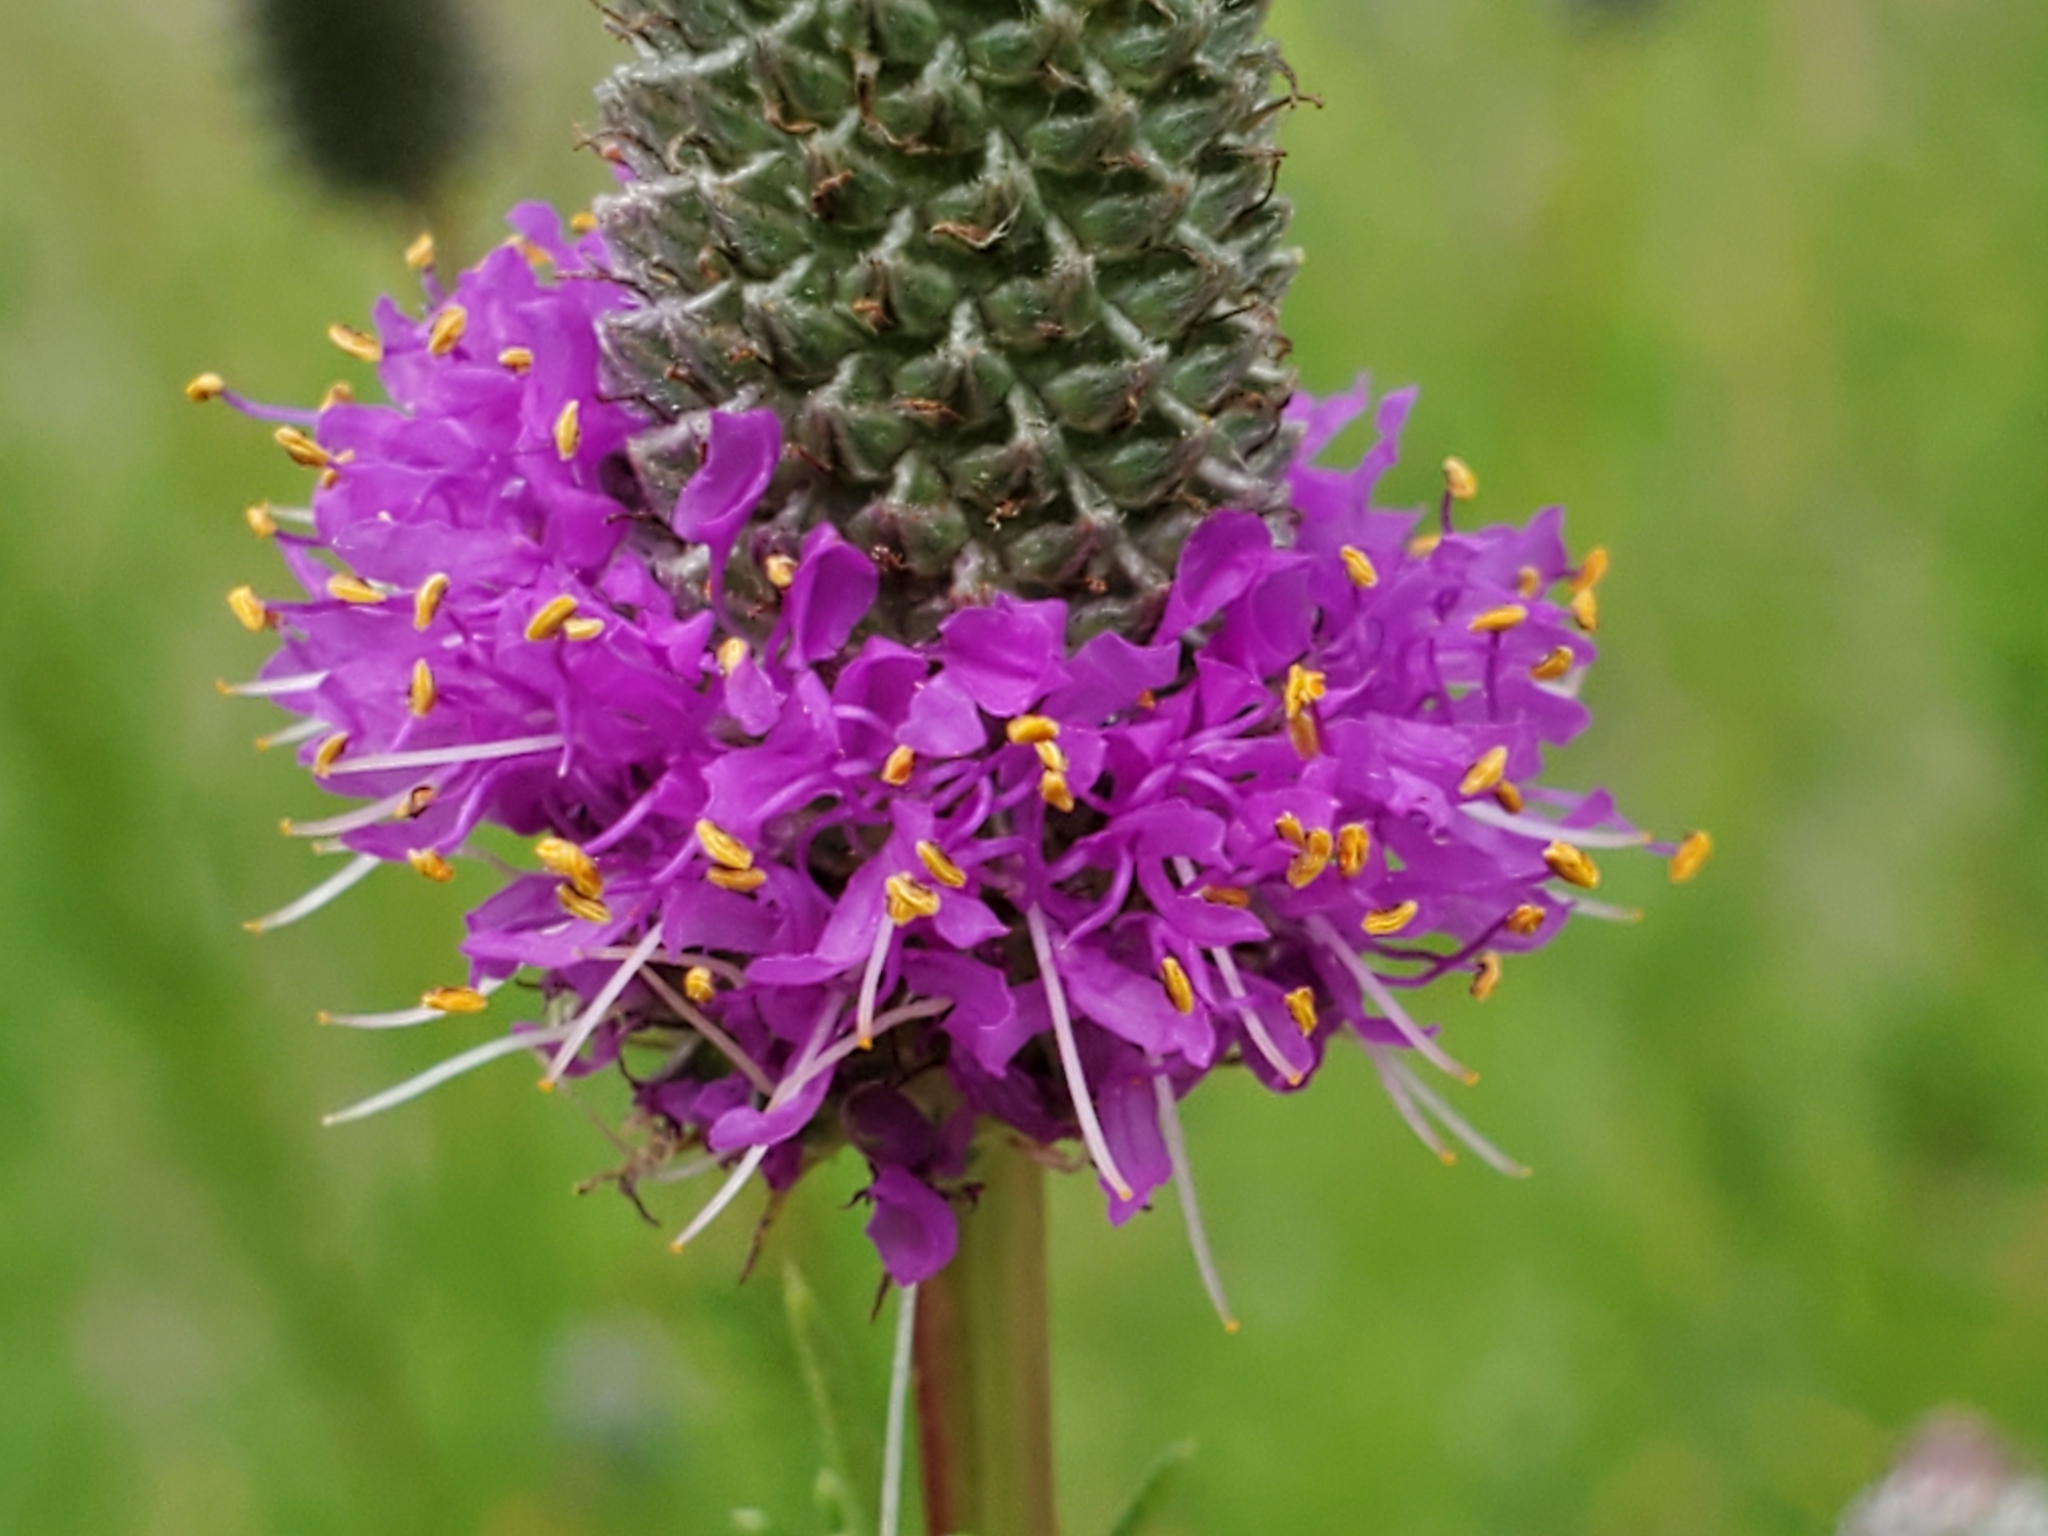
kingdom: Plantae
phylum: Tracheophyta
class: Magnoliopsida
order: Fabales
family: Fabaceae
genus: Dalea
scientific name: Dalea purpurea
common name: Purple prairie-clover
